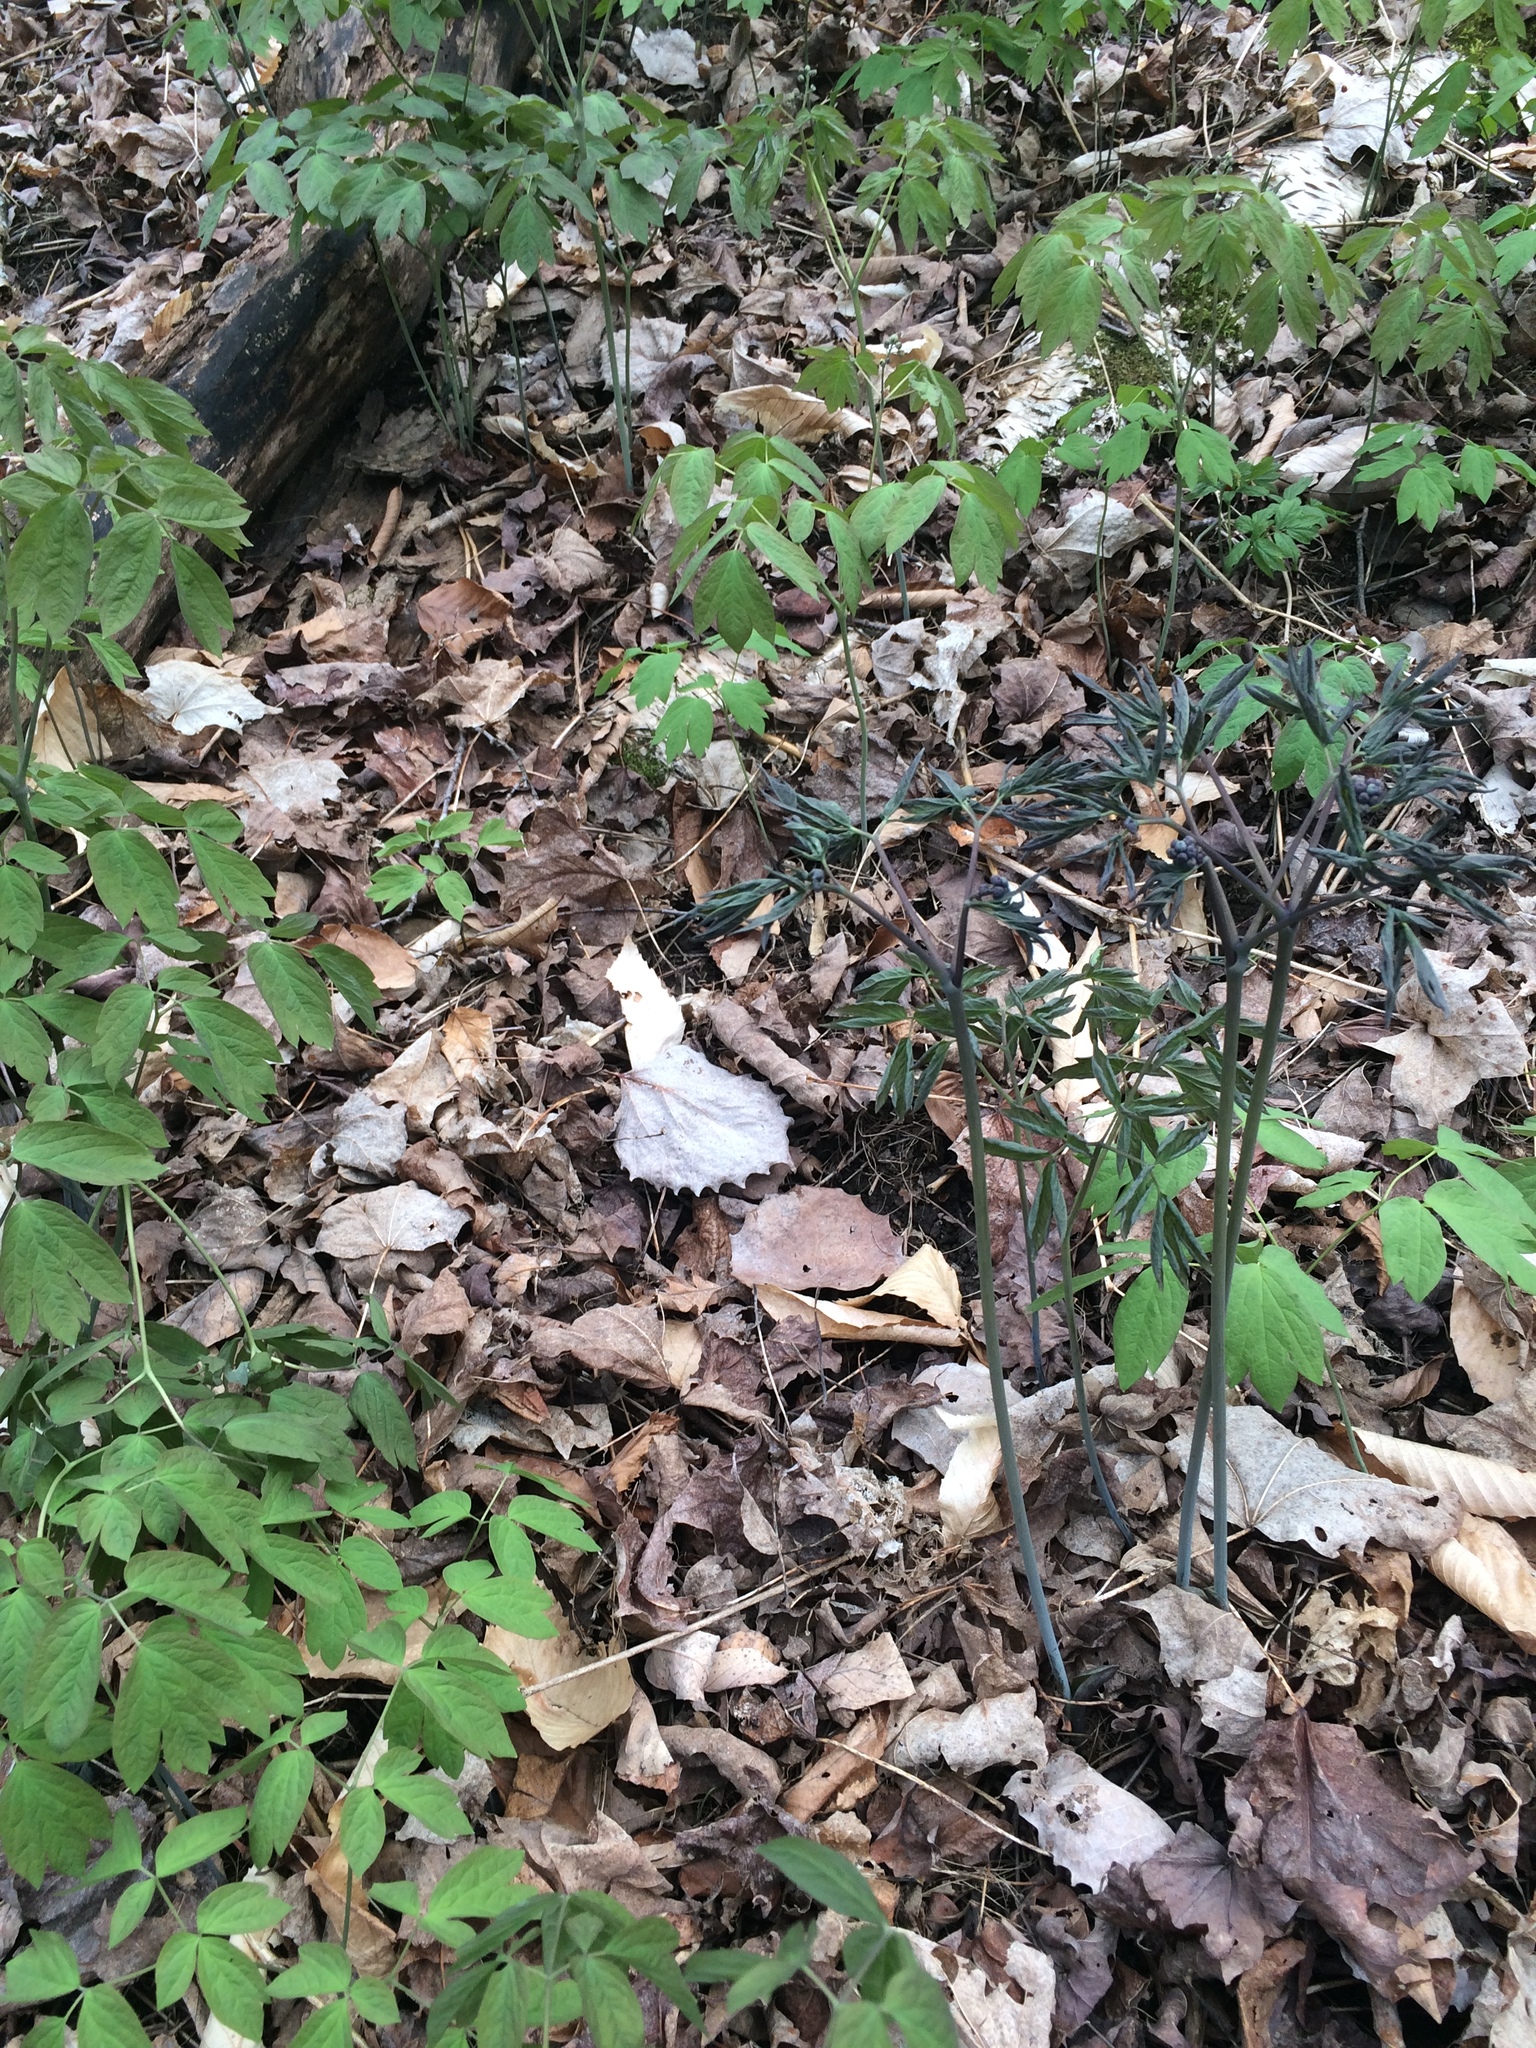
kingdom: Plantae
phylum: Tracheophyta
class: Magnoliopsida
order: Ranunculales
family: Berberidaceae
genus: Caulophyllum
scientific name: Caulophyllum
